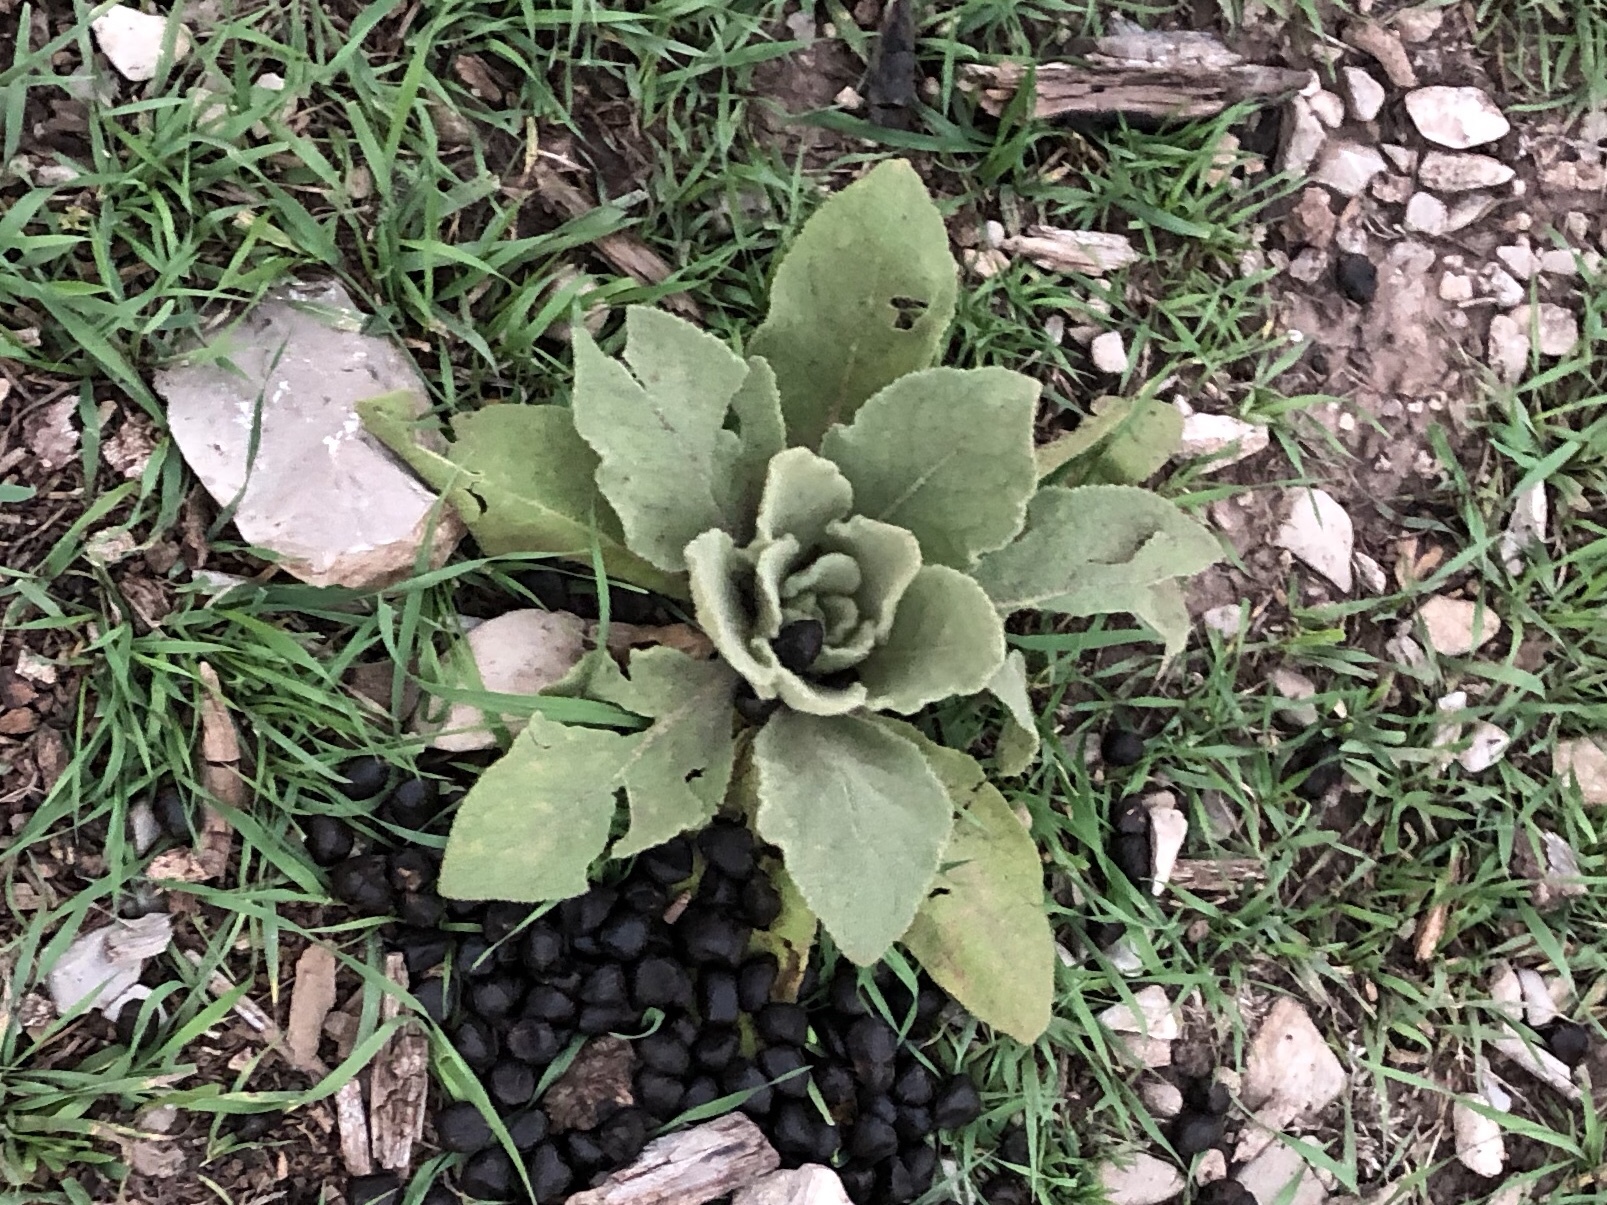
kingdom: Plantae
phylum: Tracheophyta
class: Magnoliopsida
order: Lamiales
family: Scrophulariaceae
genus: Verbascum
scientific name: Verbascum thapsus
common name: Common mullein
